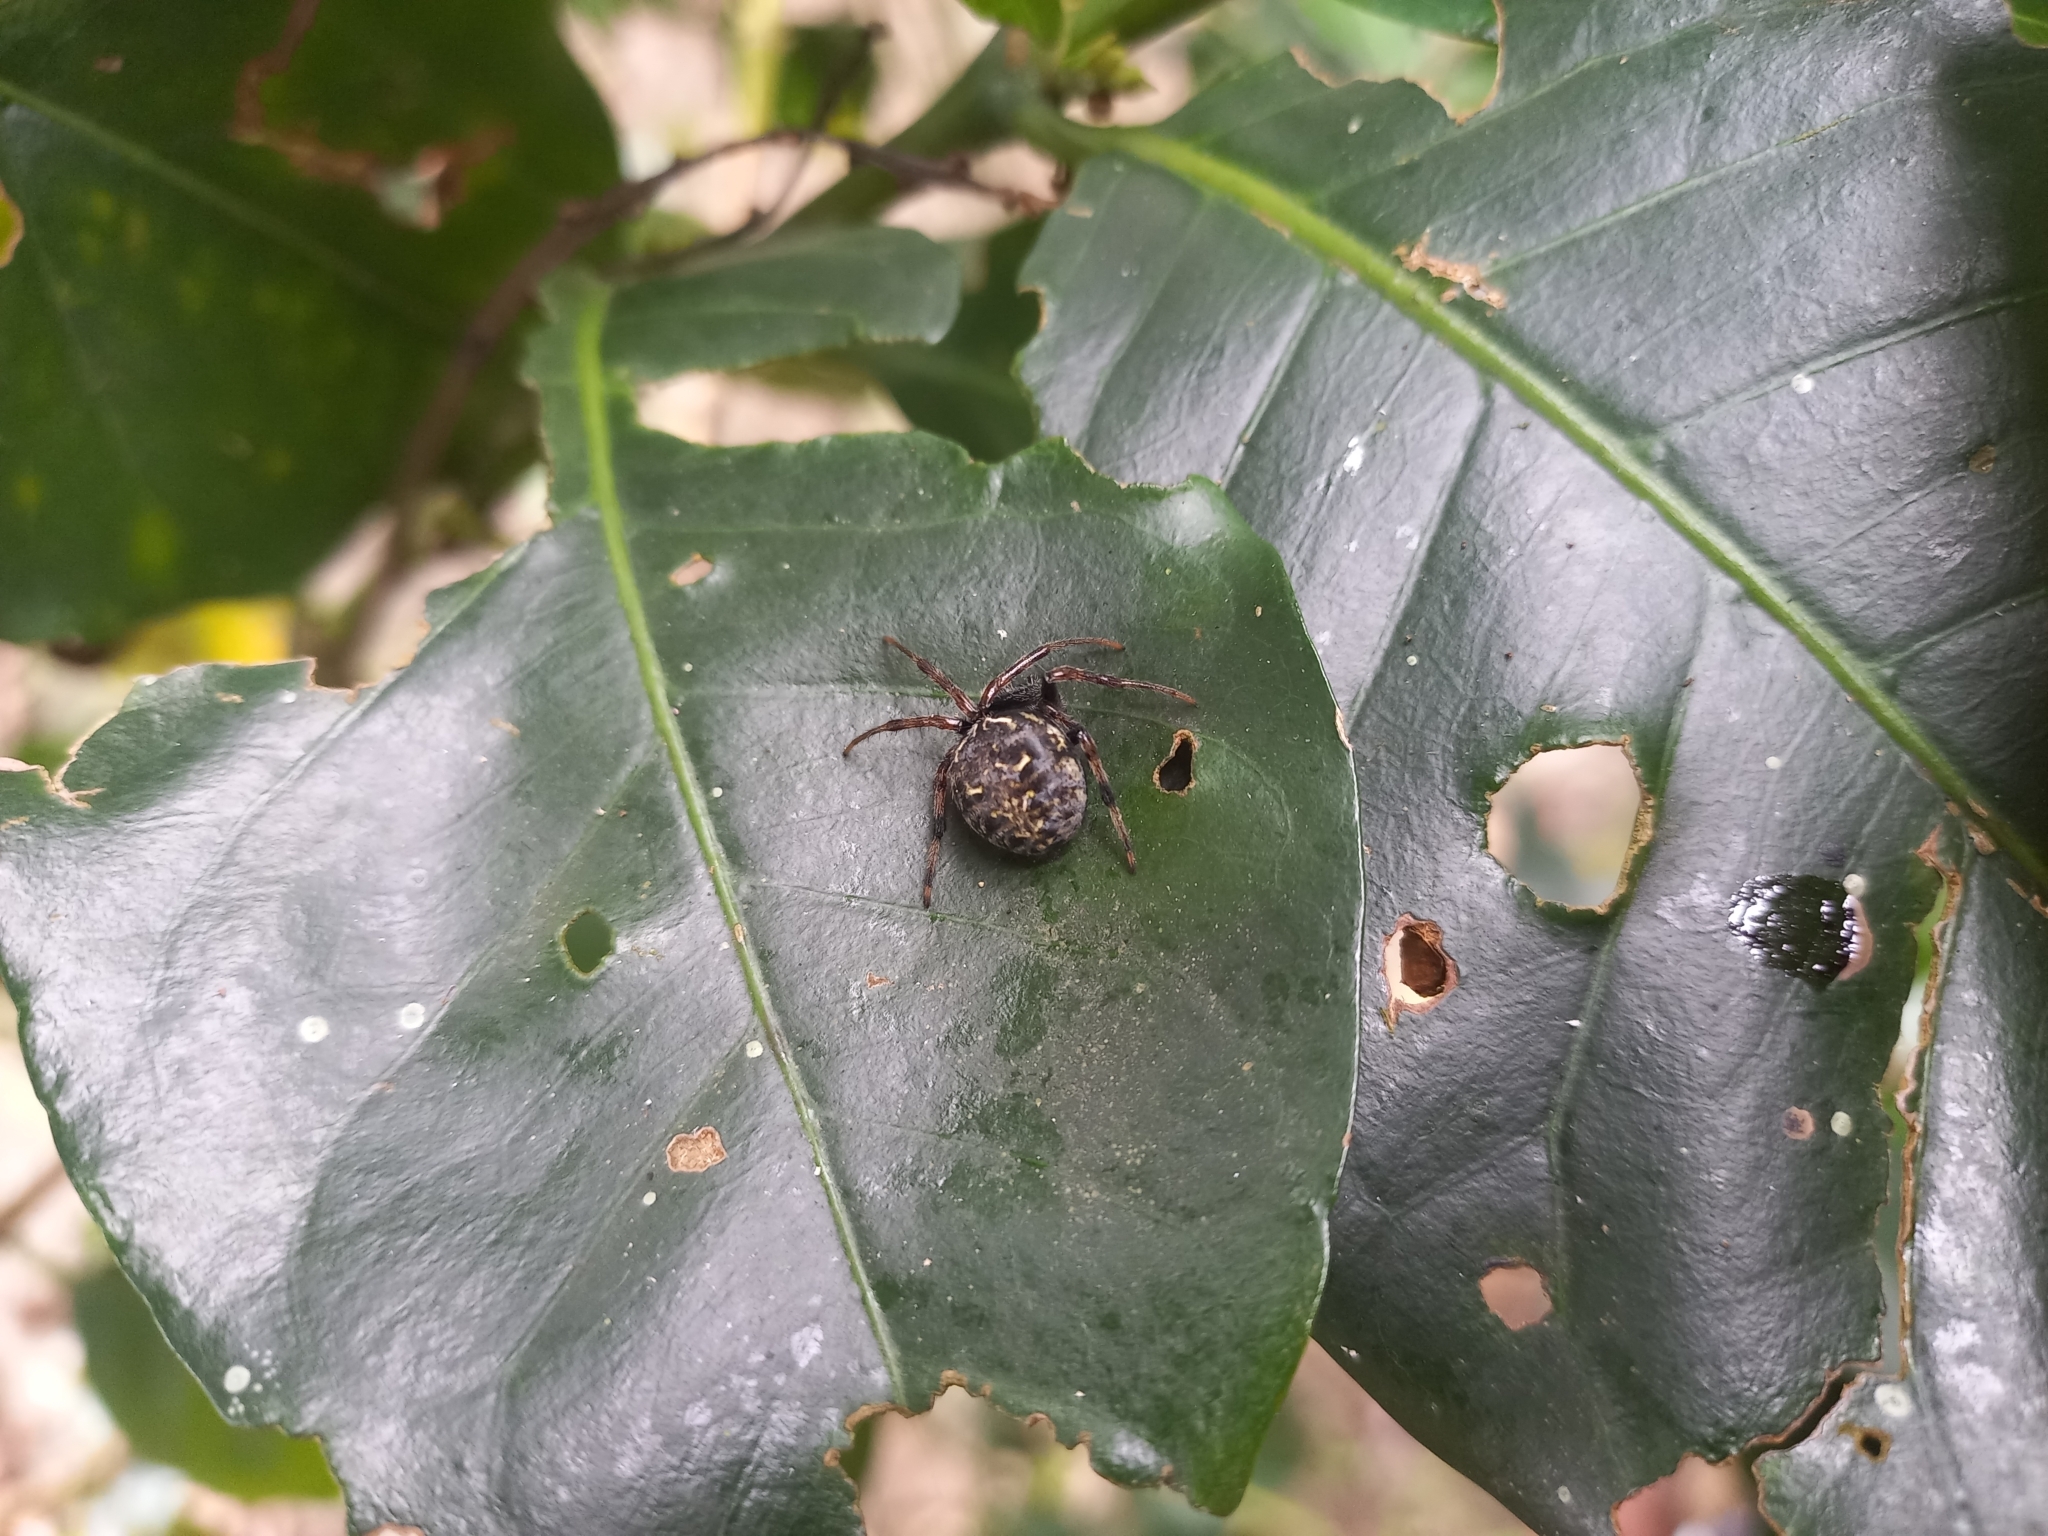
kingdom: Animalia
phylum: Arthropoda
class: Arachnida
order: Araneae
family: Araneidae
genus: Araneus
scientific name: Araneus granadensis
